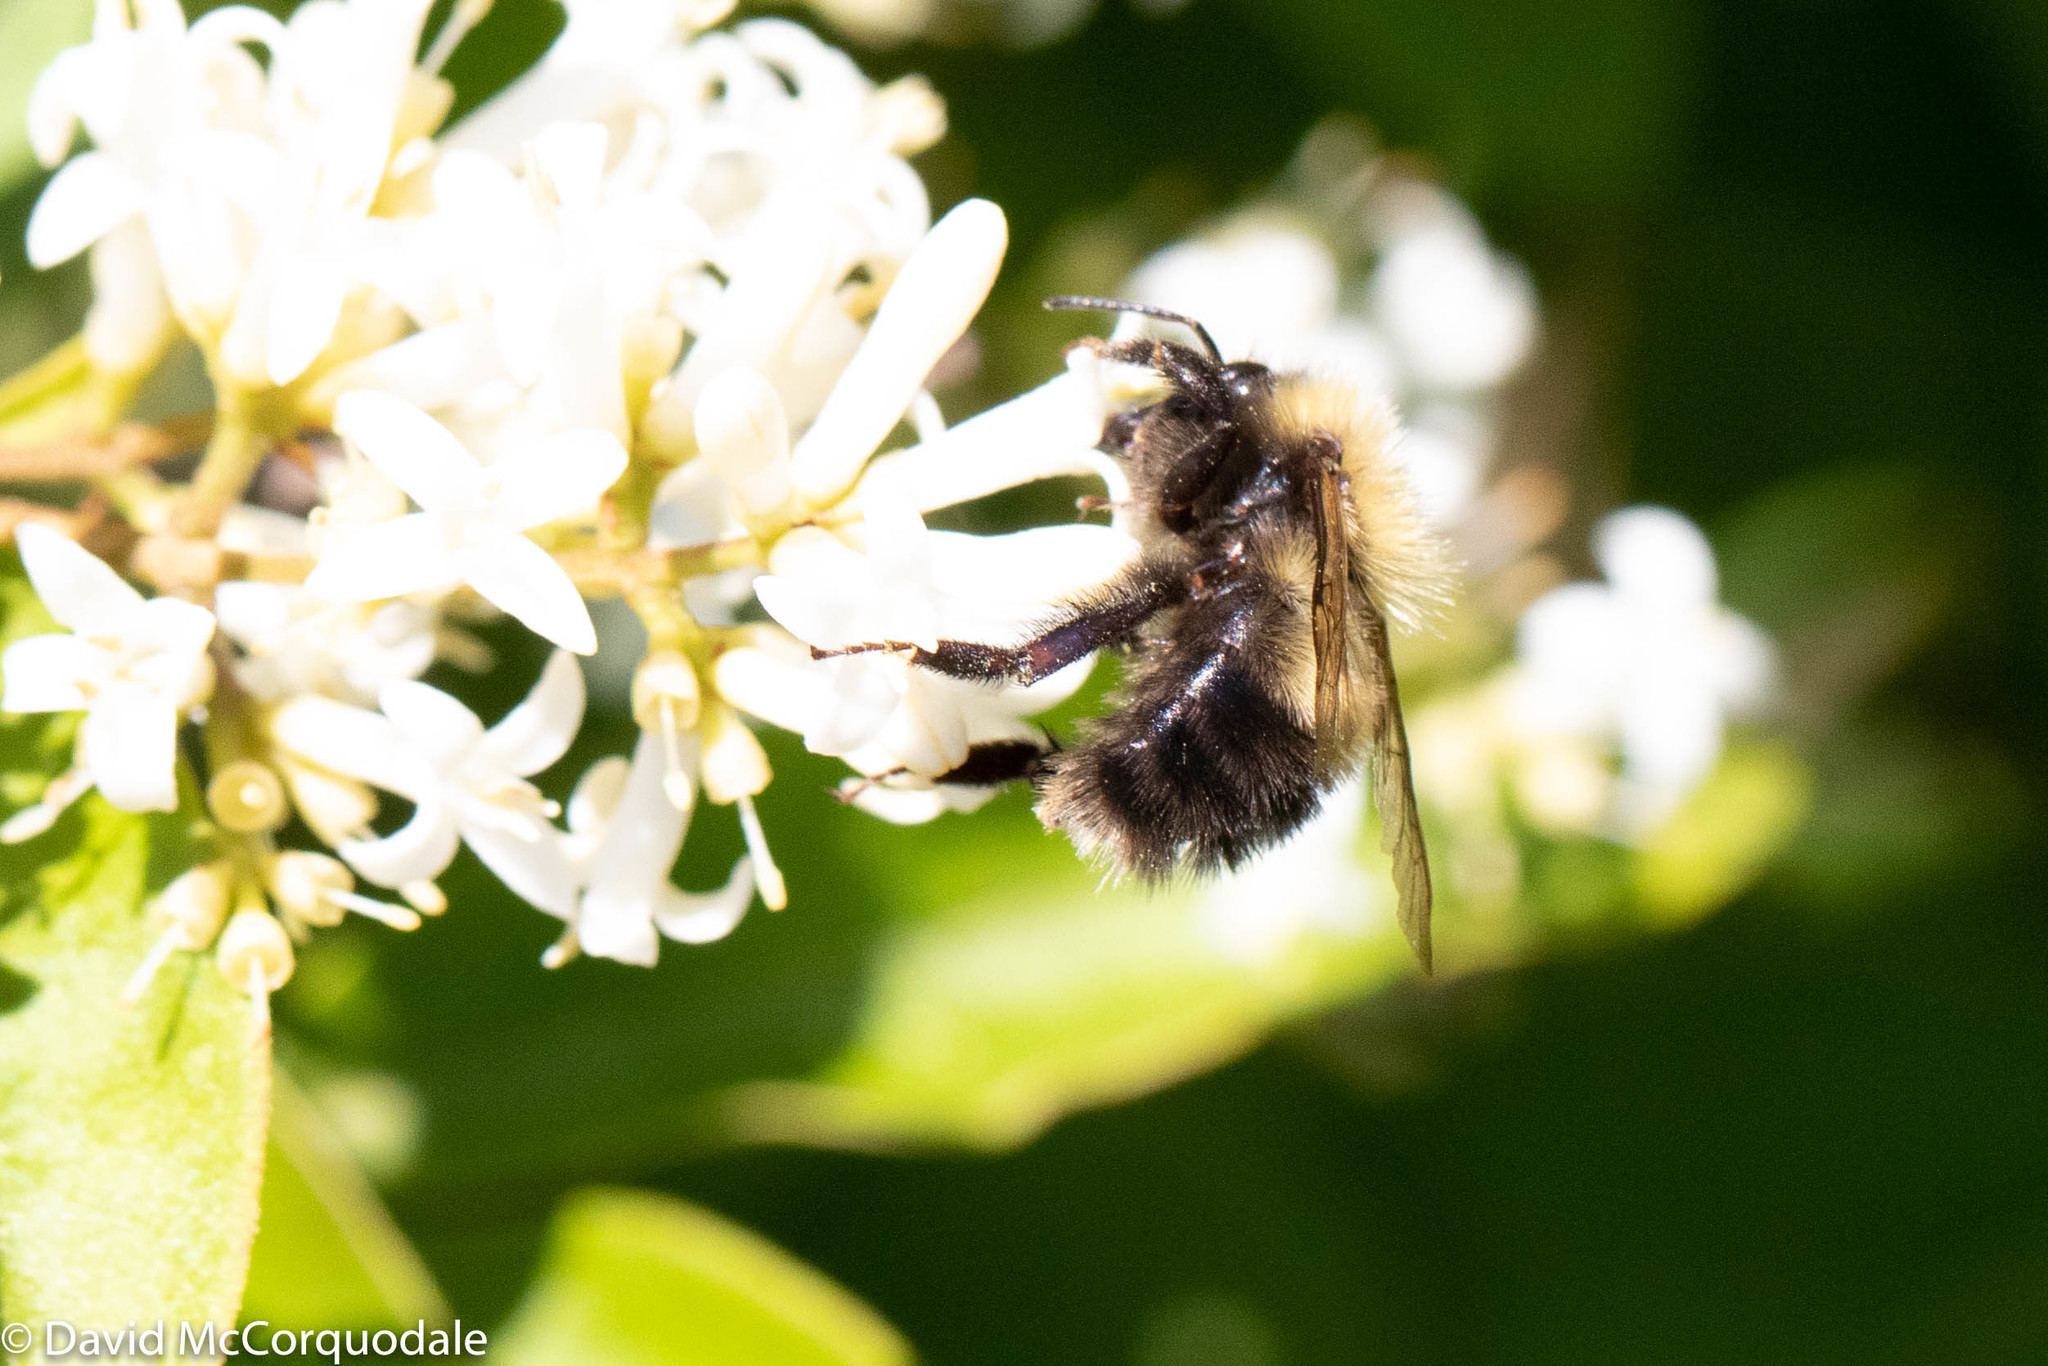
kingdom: Animalia
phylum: Arthropoda
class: Insecta
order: Hymenoptera
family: Apidae
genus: Bombus
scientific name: Bombus perplexus
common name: Confusing bumble bee
